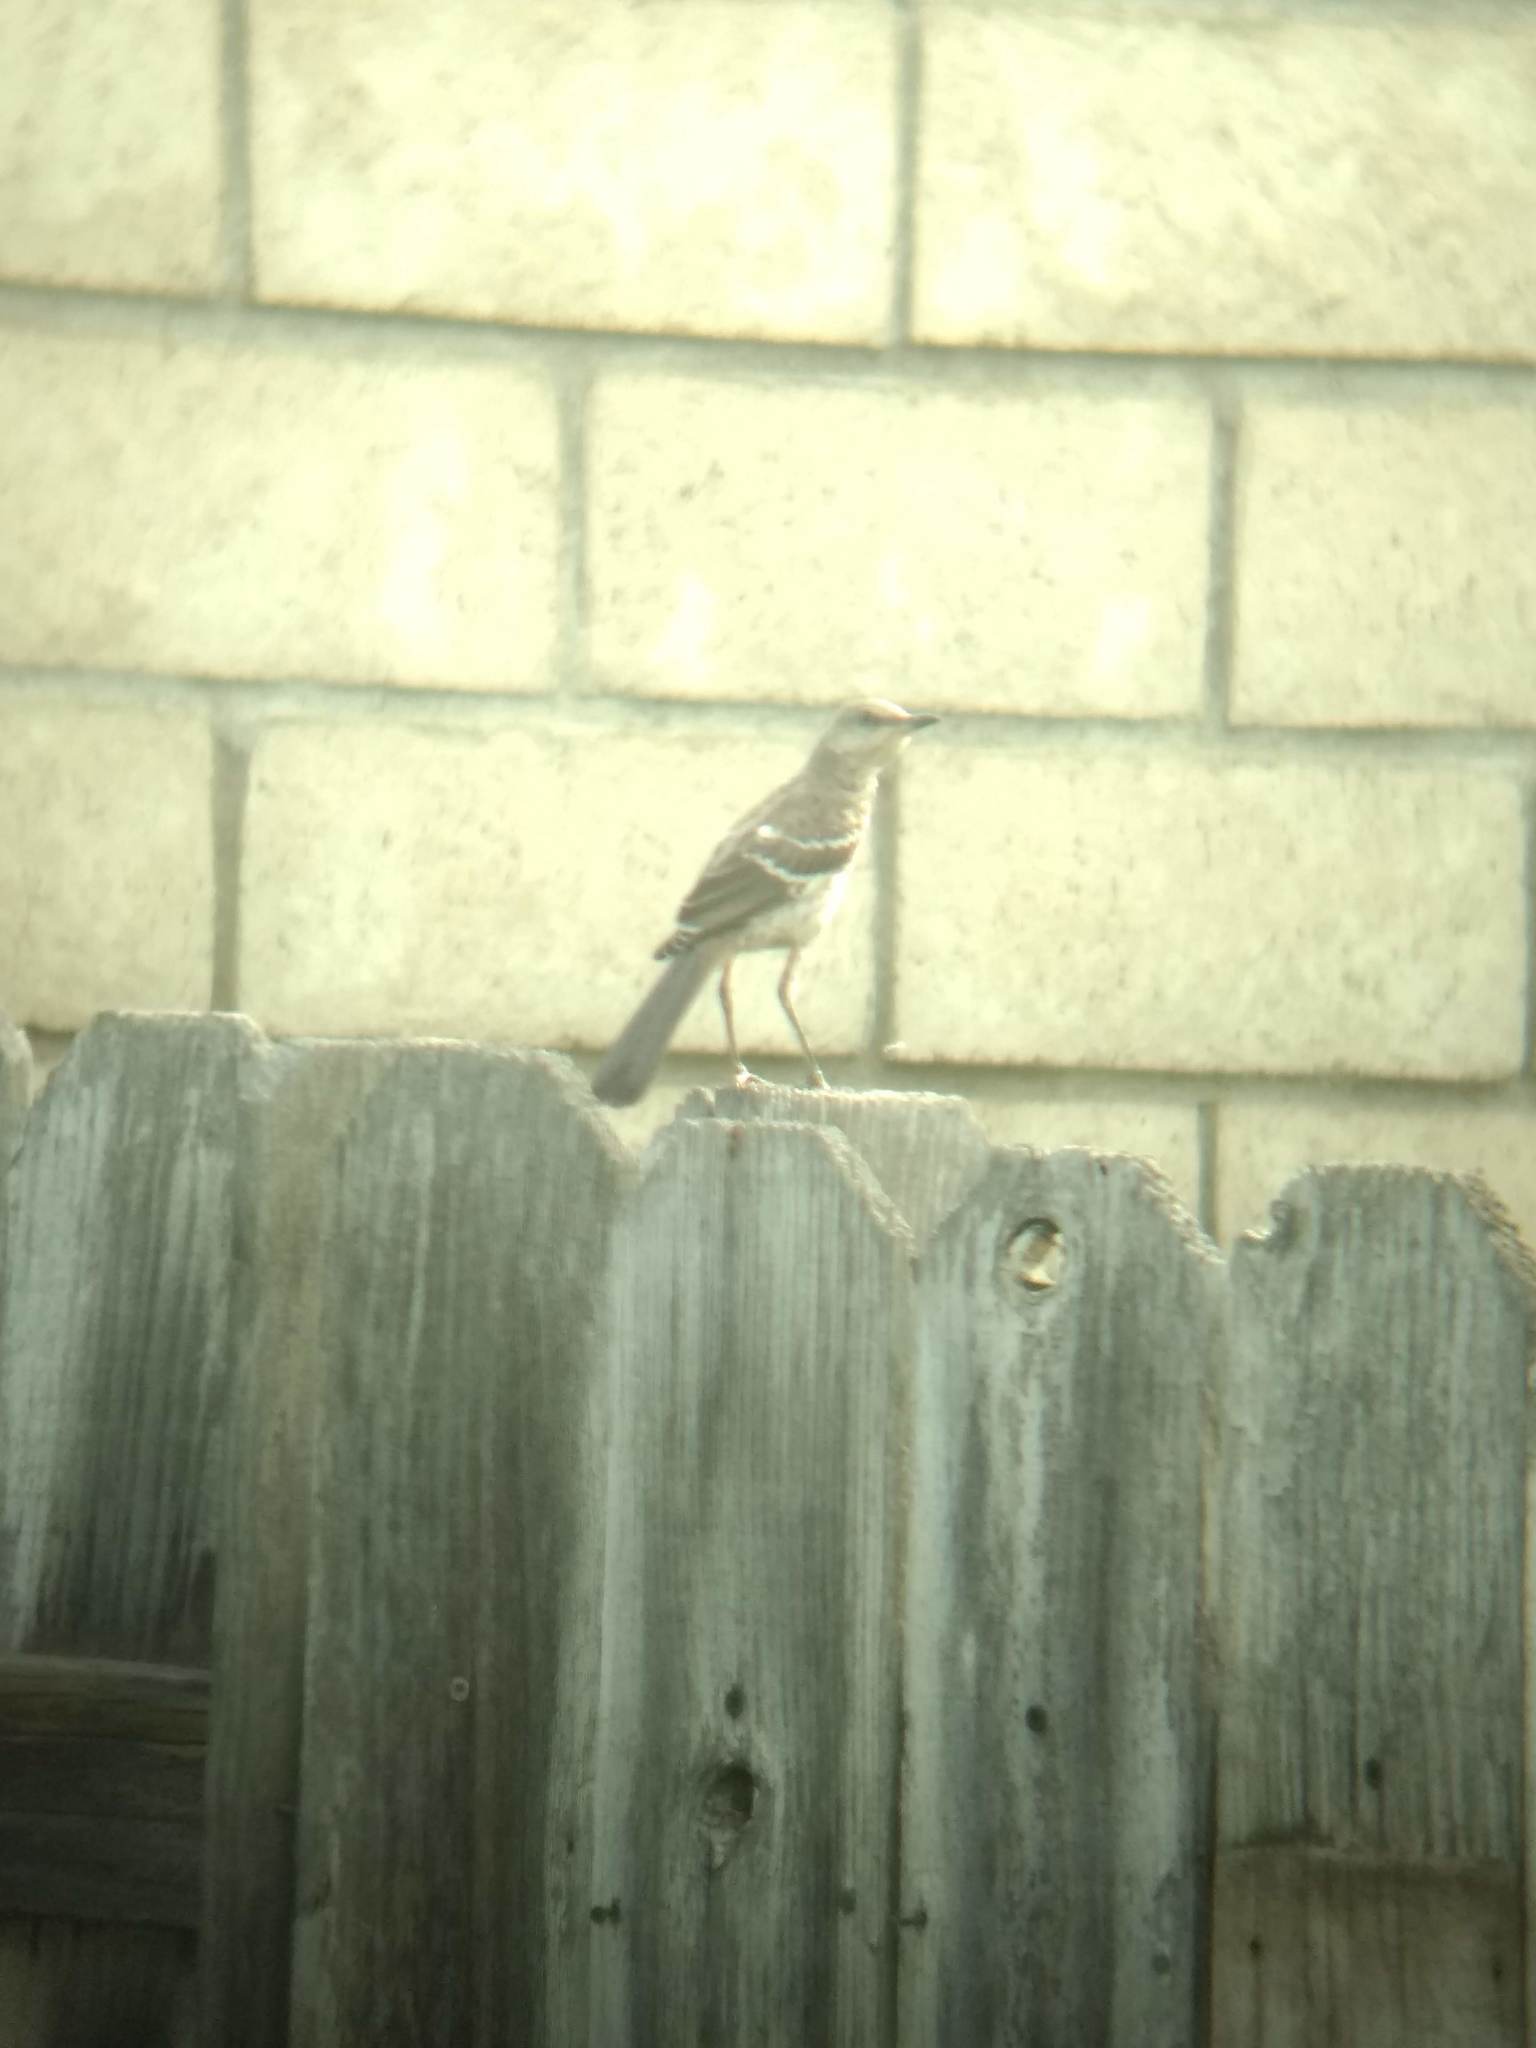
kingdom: Animalia
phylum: Chordata
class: Aves
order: Passeriformes
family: Mimidae
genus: Mimus
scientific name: Mimus polyglottos
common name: Northern mockingbird
